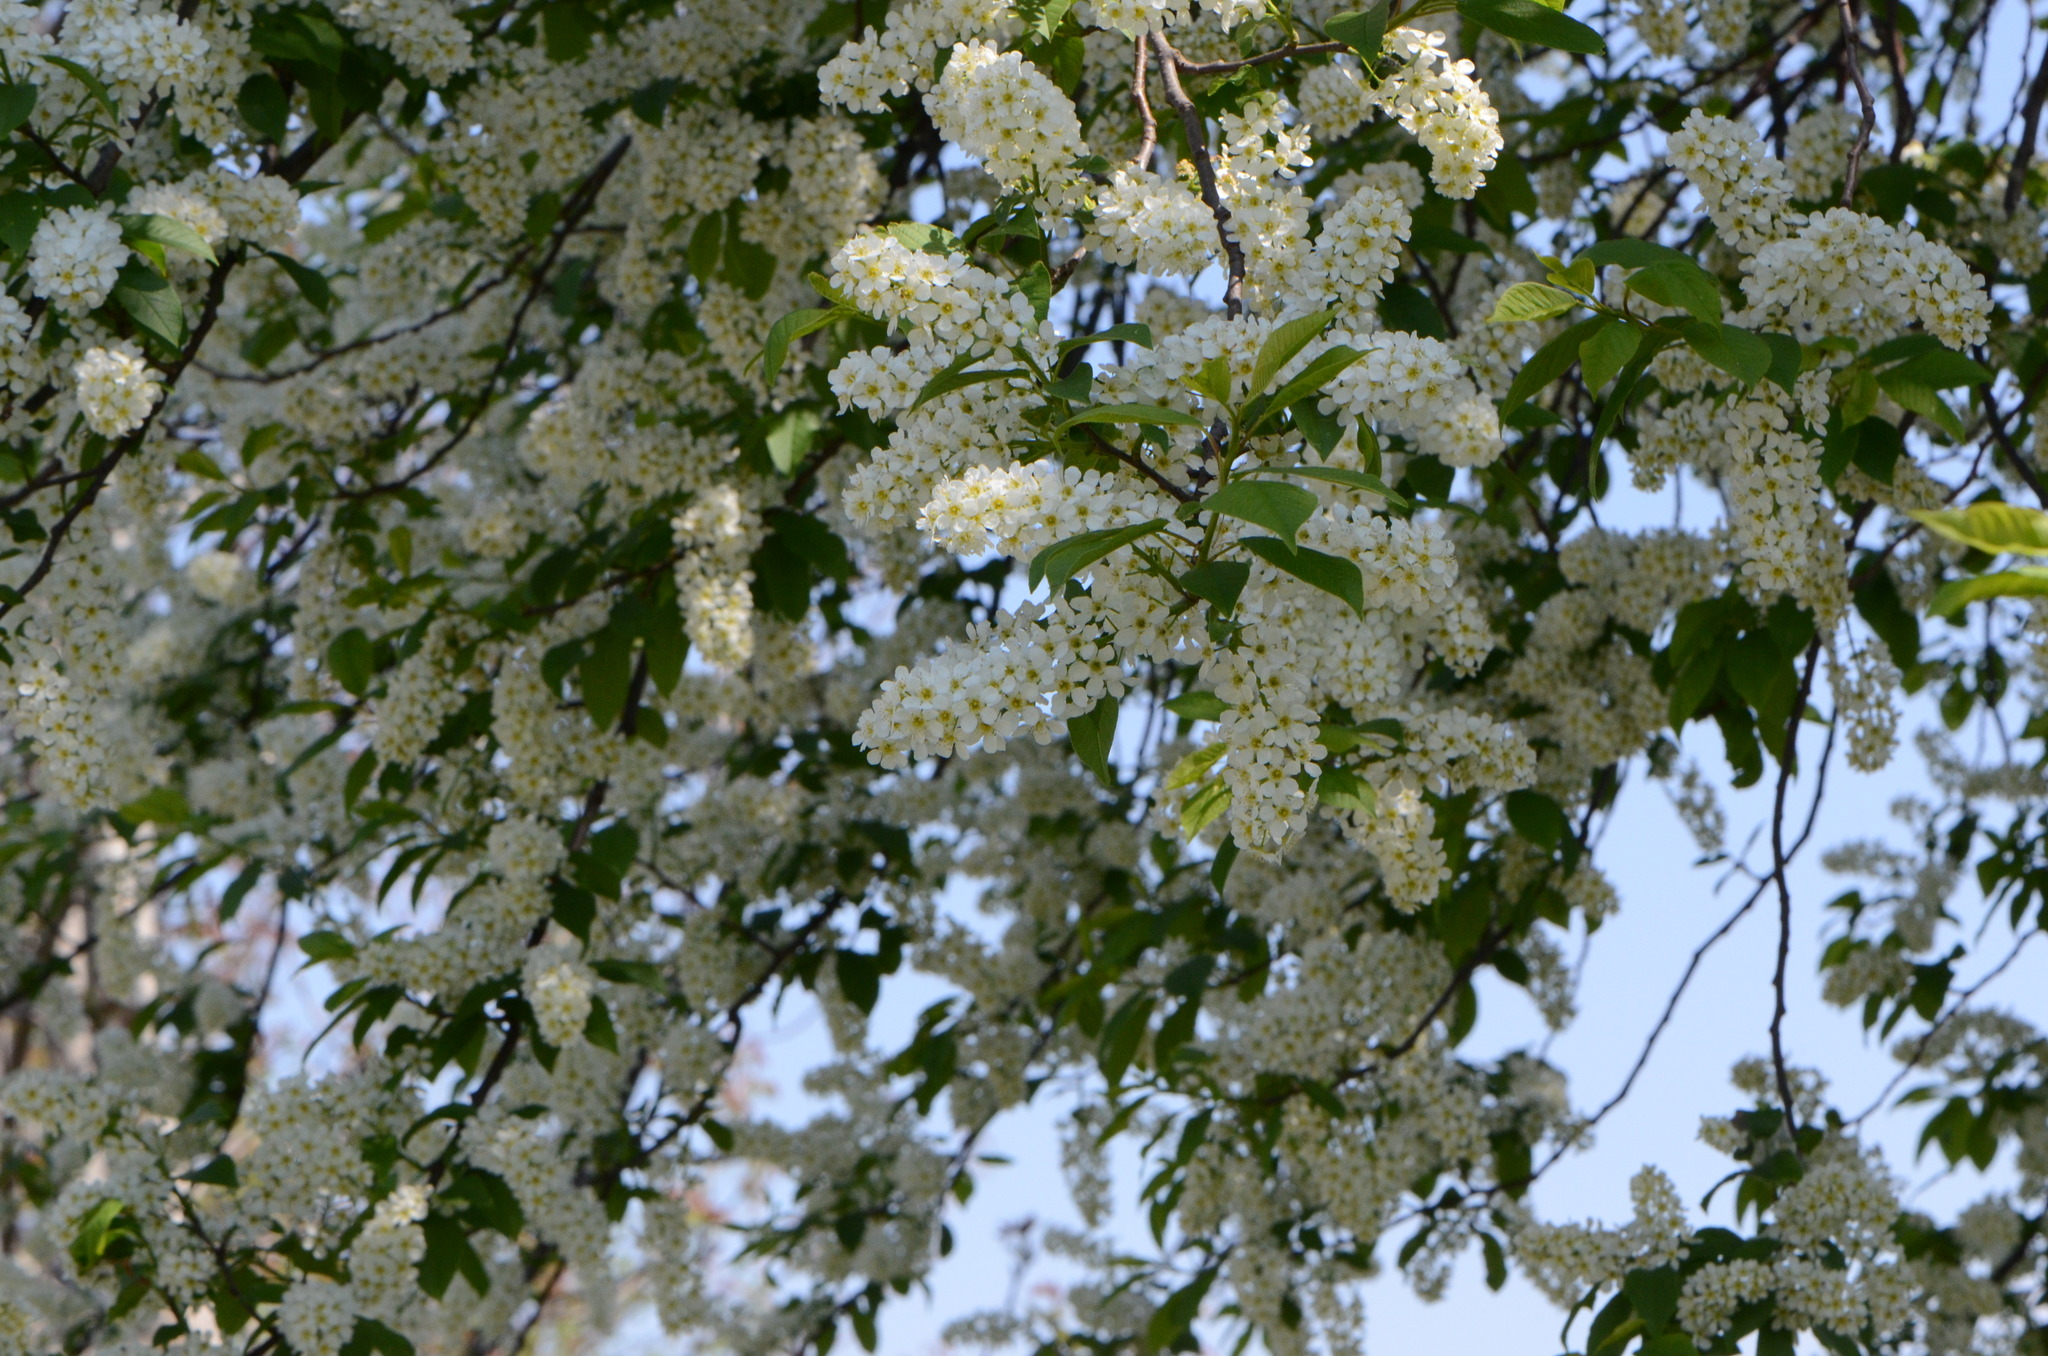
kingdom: Plantae
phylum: Tracheophyta
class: Magnoliopsida
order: Rosales
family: Rosaceae
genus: Prunus
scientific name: Prunus padus
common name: Bird cherry
